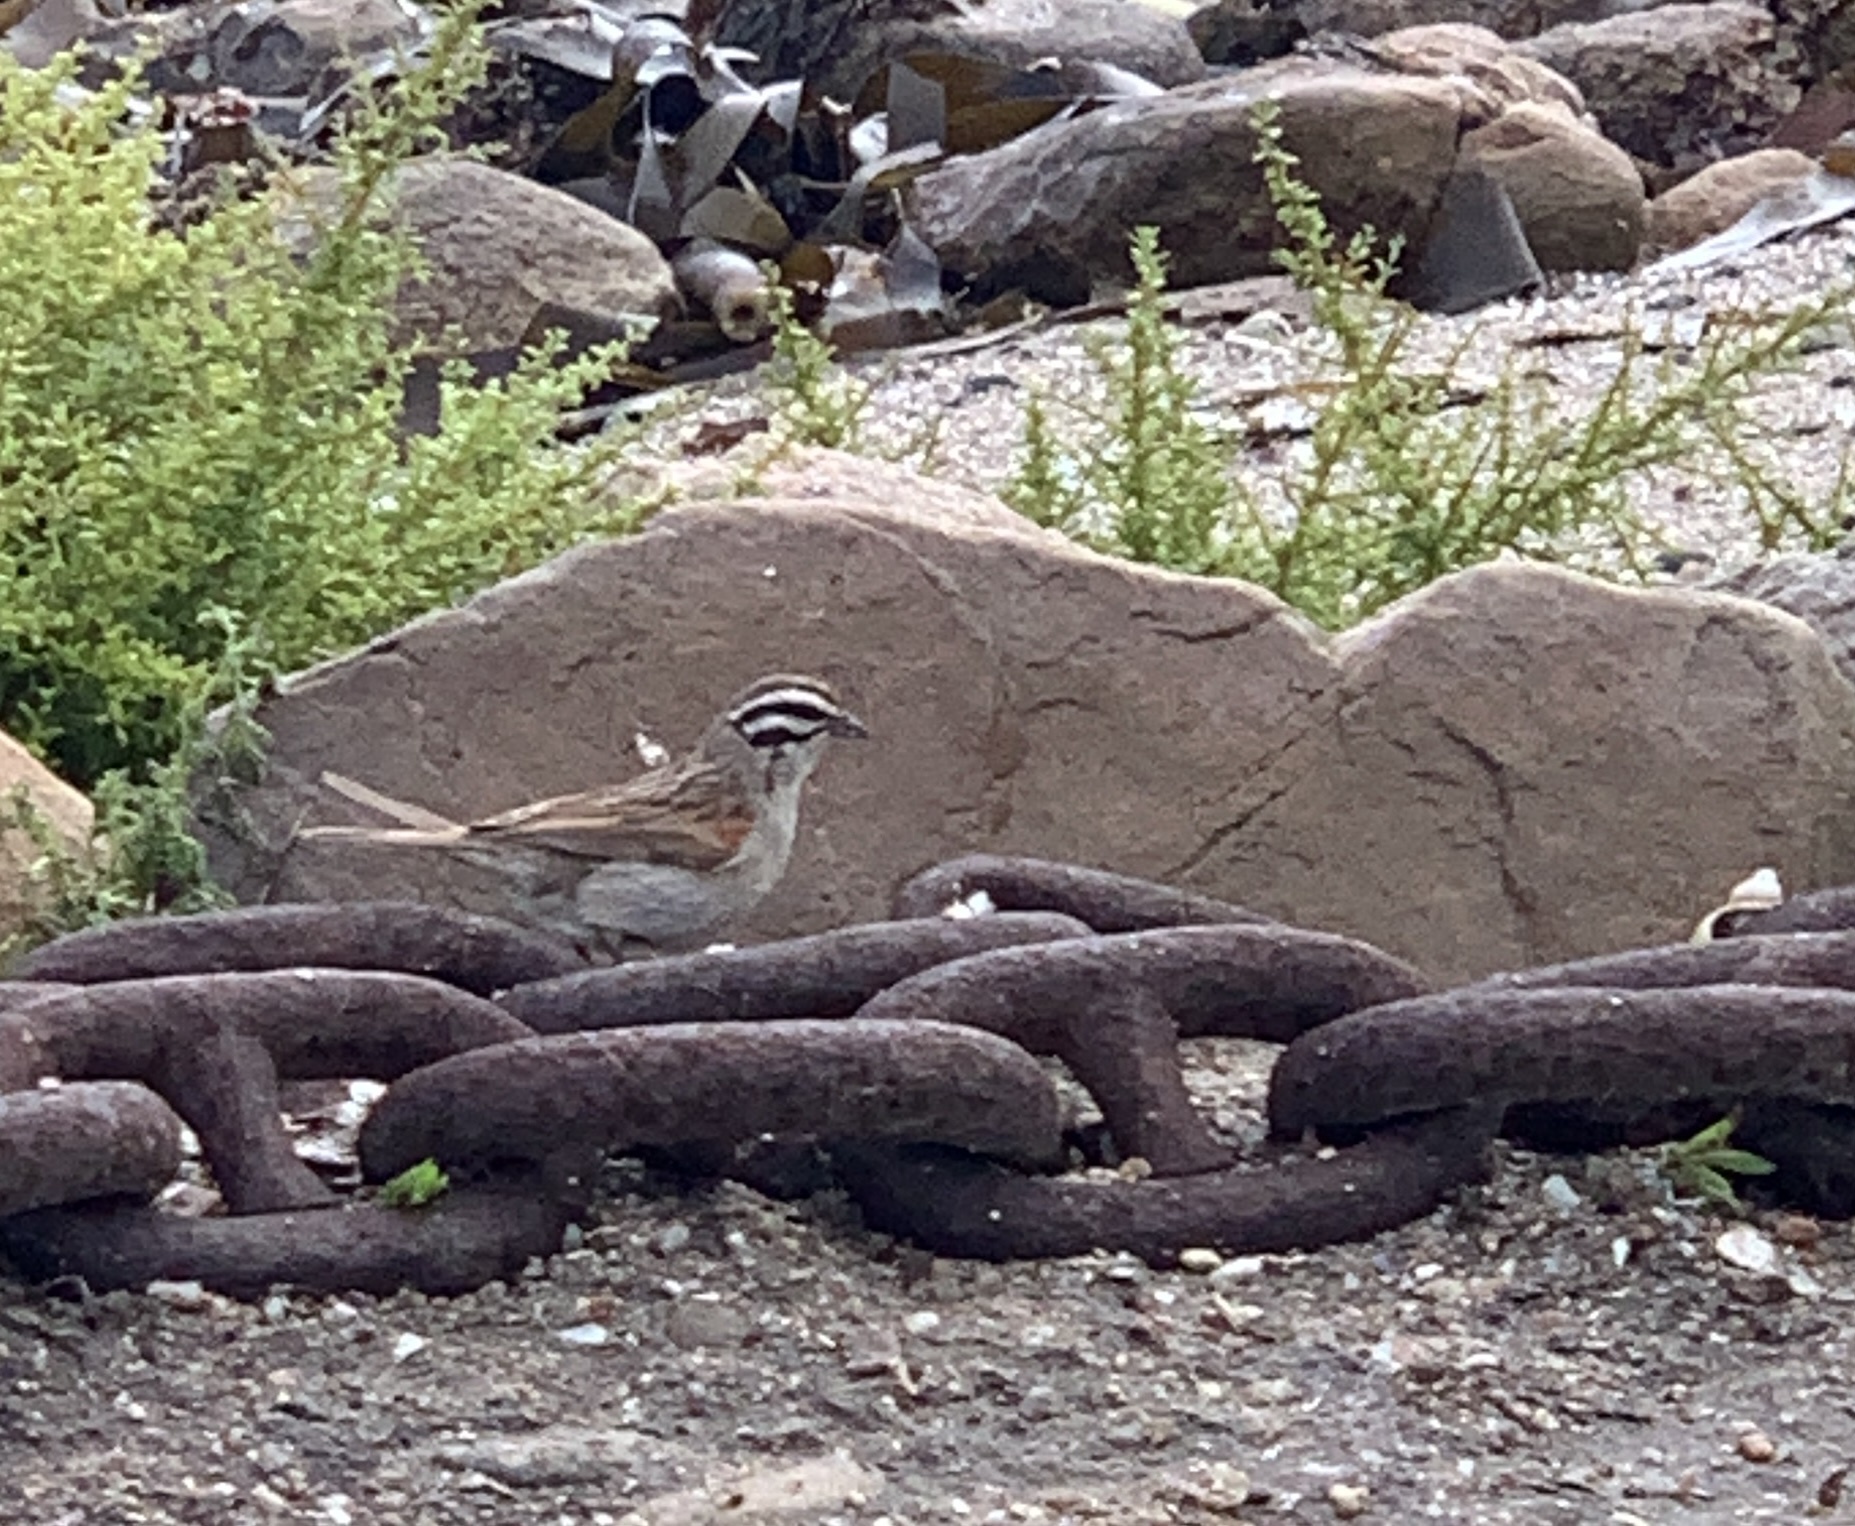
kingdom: Animalia
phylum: Chordata
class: Aves
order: Passeriformes
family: Emberizidae
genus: Emberiza
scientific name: Emberiza capensis
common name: Cape bunting
